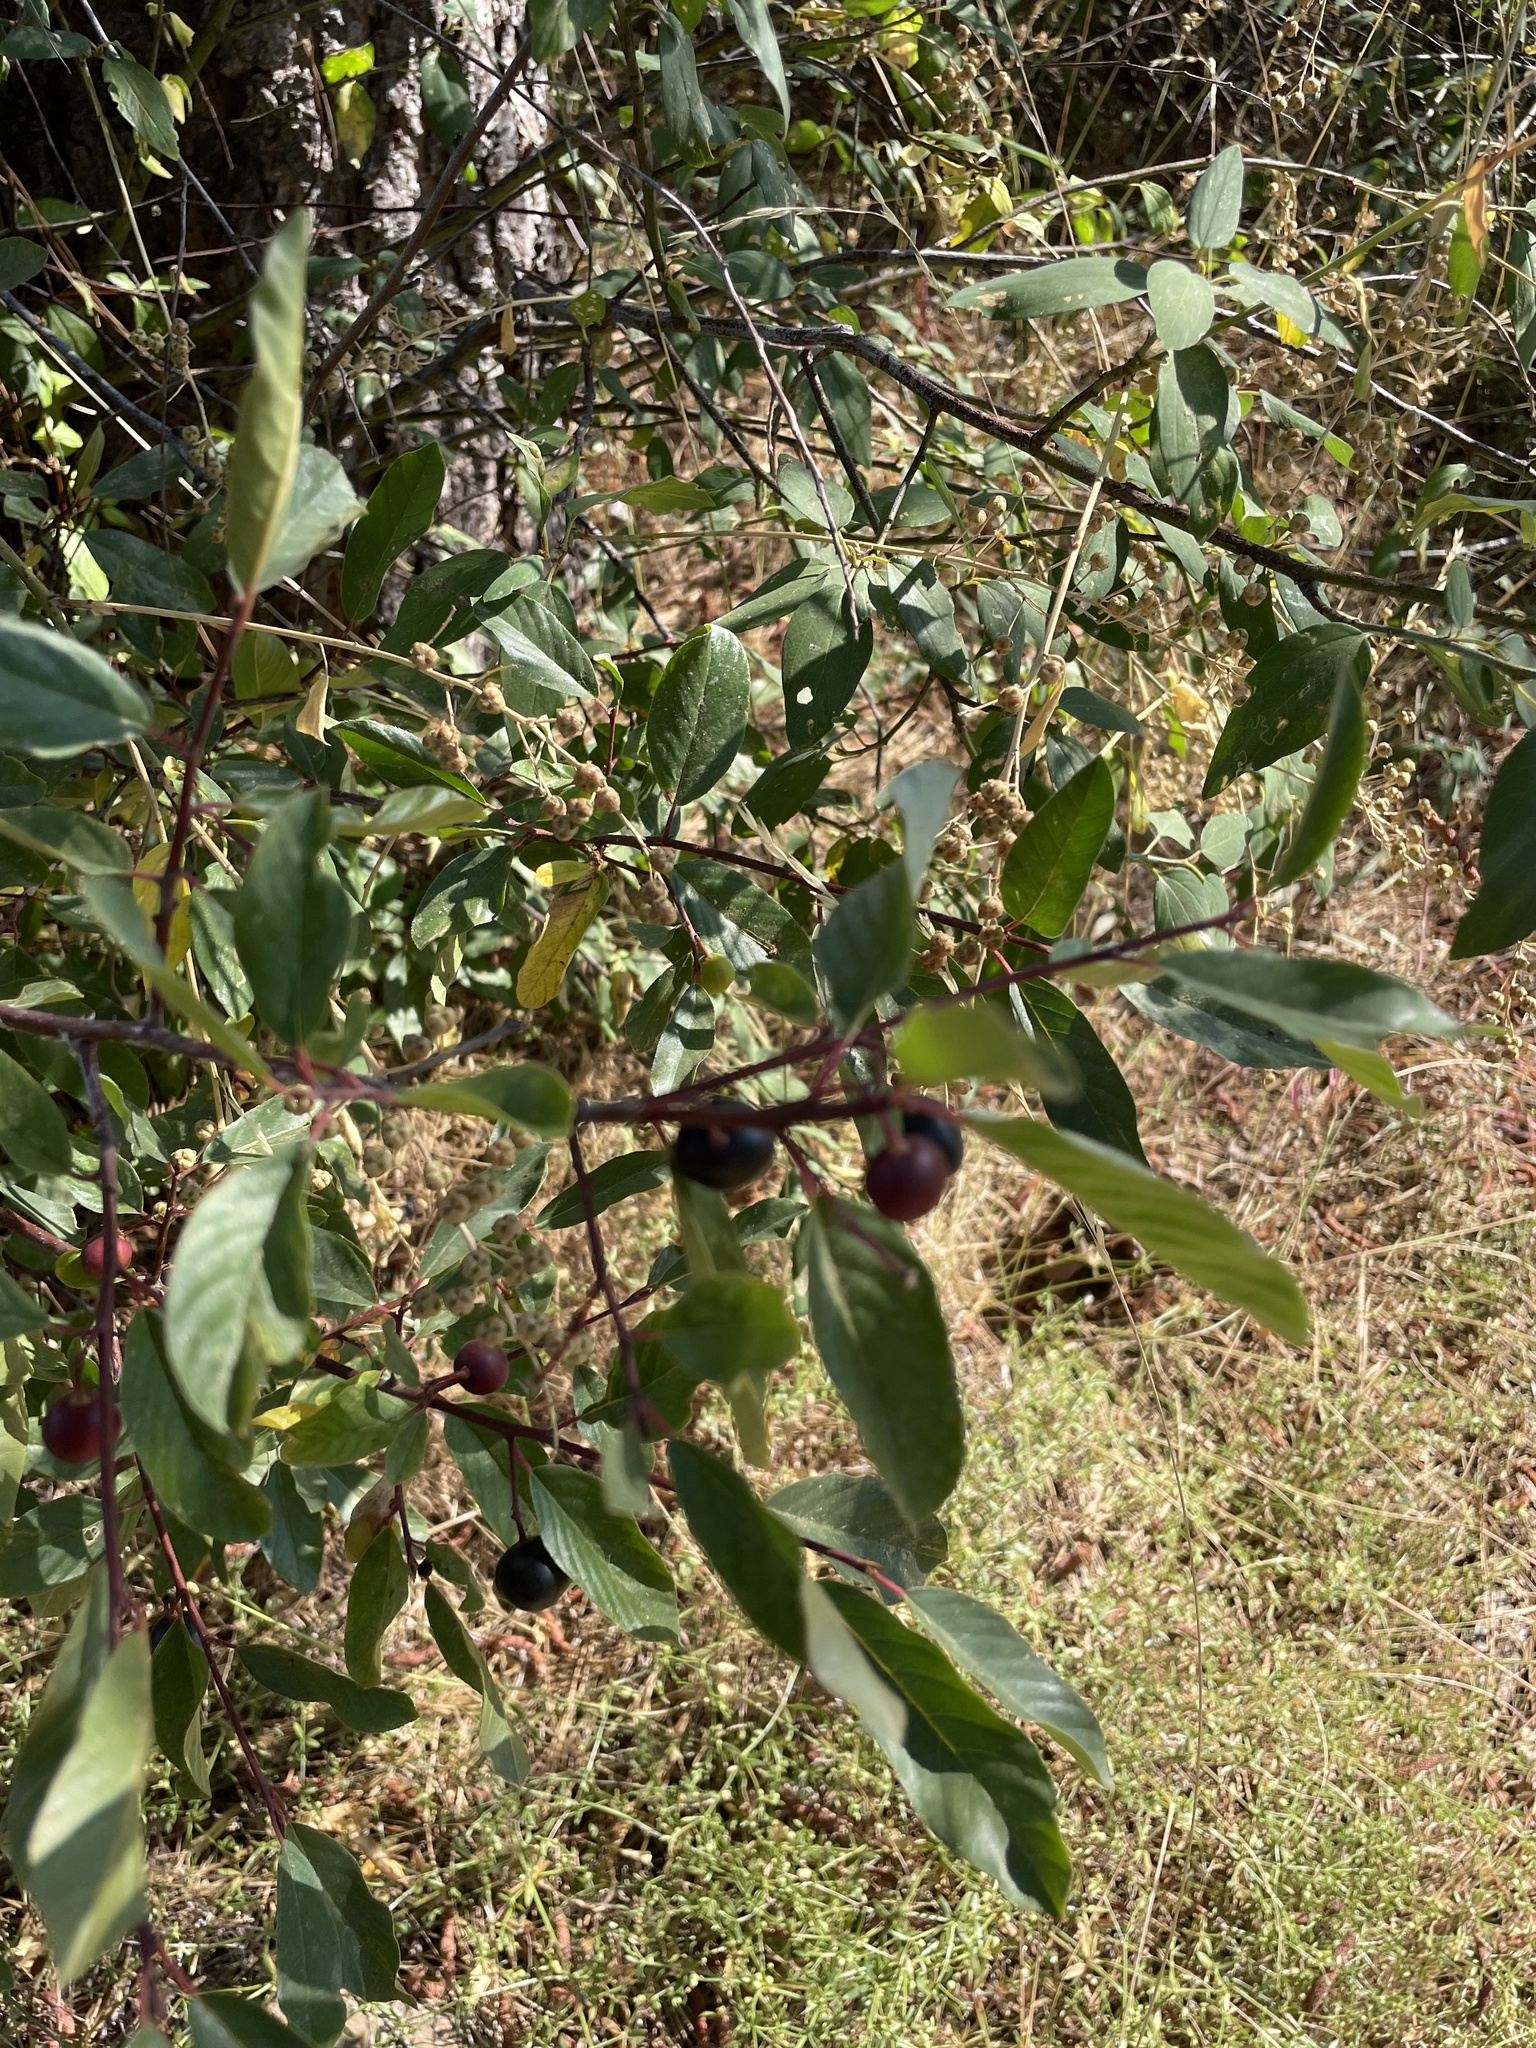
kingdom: Plantae
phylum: Tracheophyta
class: Magnoliopsida
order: Rosales
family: Rhamnaceae
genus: Frangula
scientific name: Frangula californica
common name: California buckthorn
